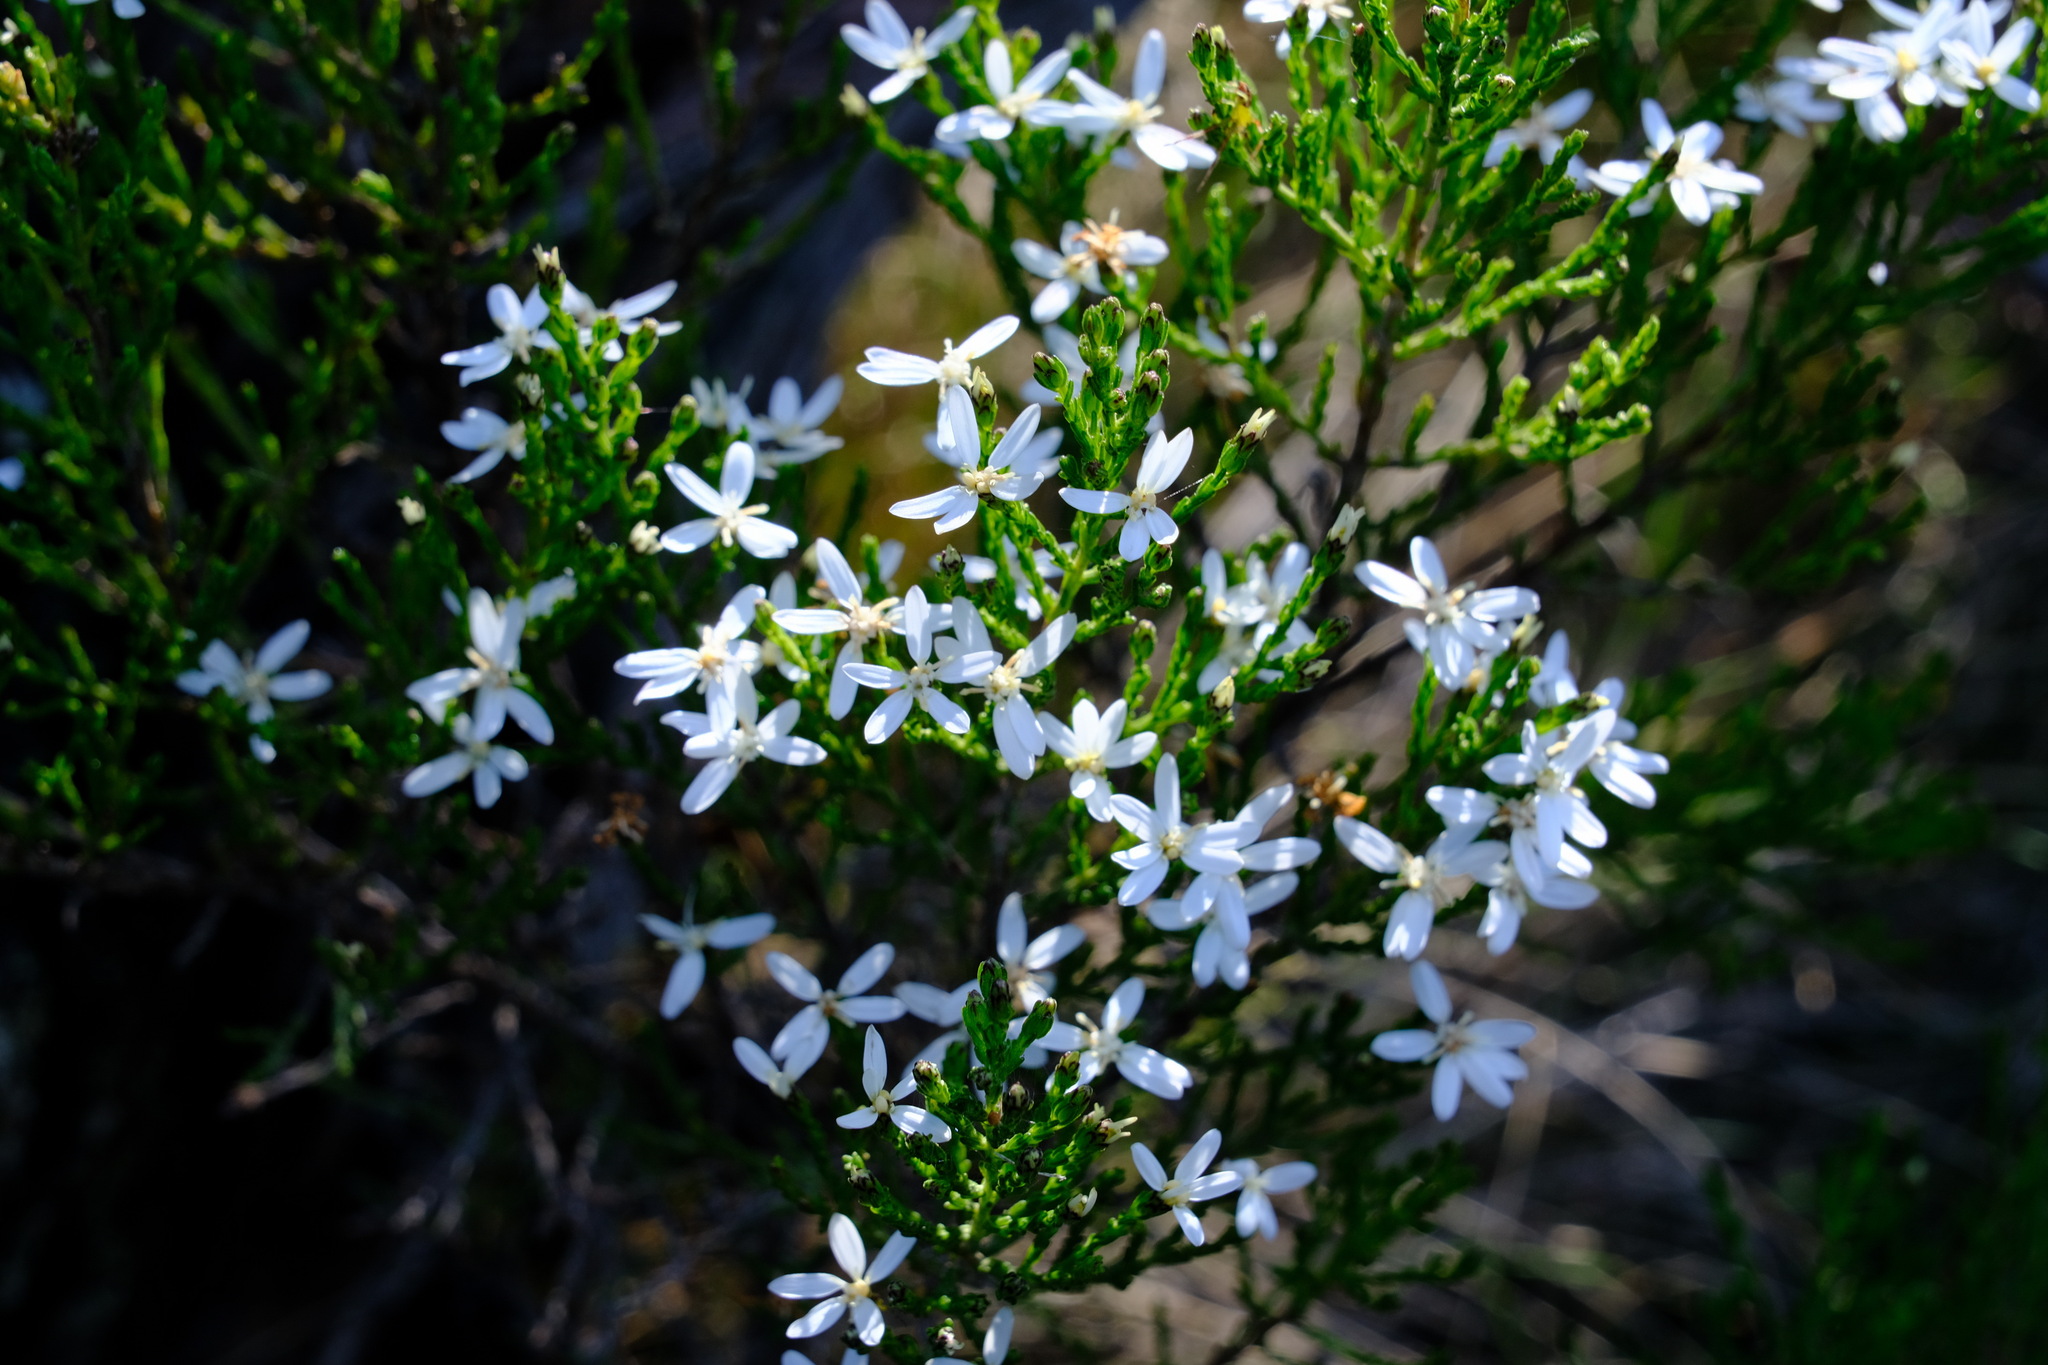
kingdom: Plantae
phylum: Tracheophyta
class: Magnoliopsida
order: Asterales
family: Asteraceae
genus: Olearia
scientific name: Olearia teretifolia
